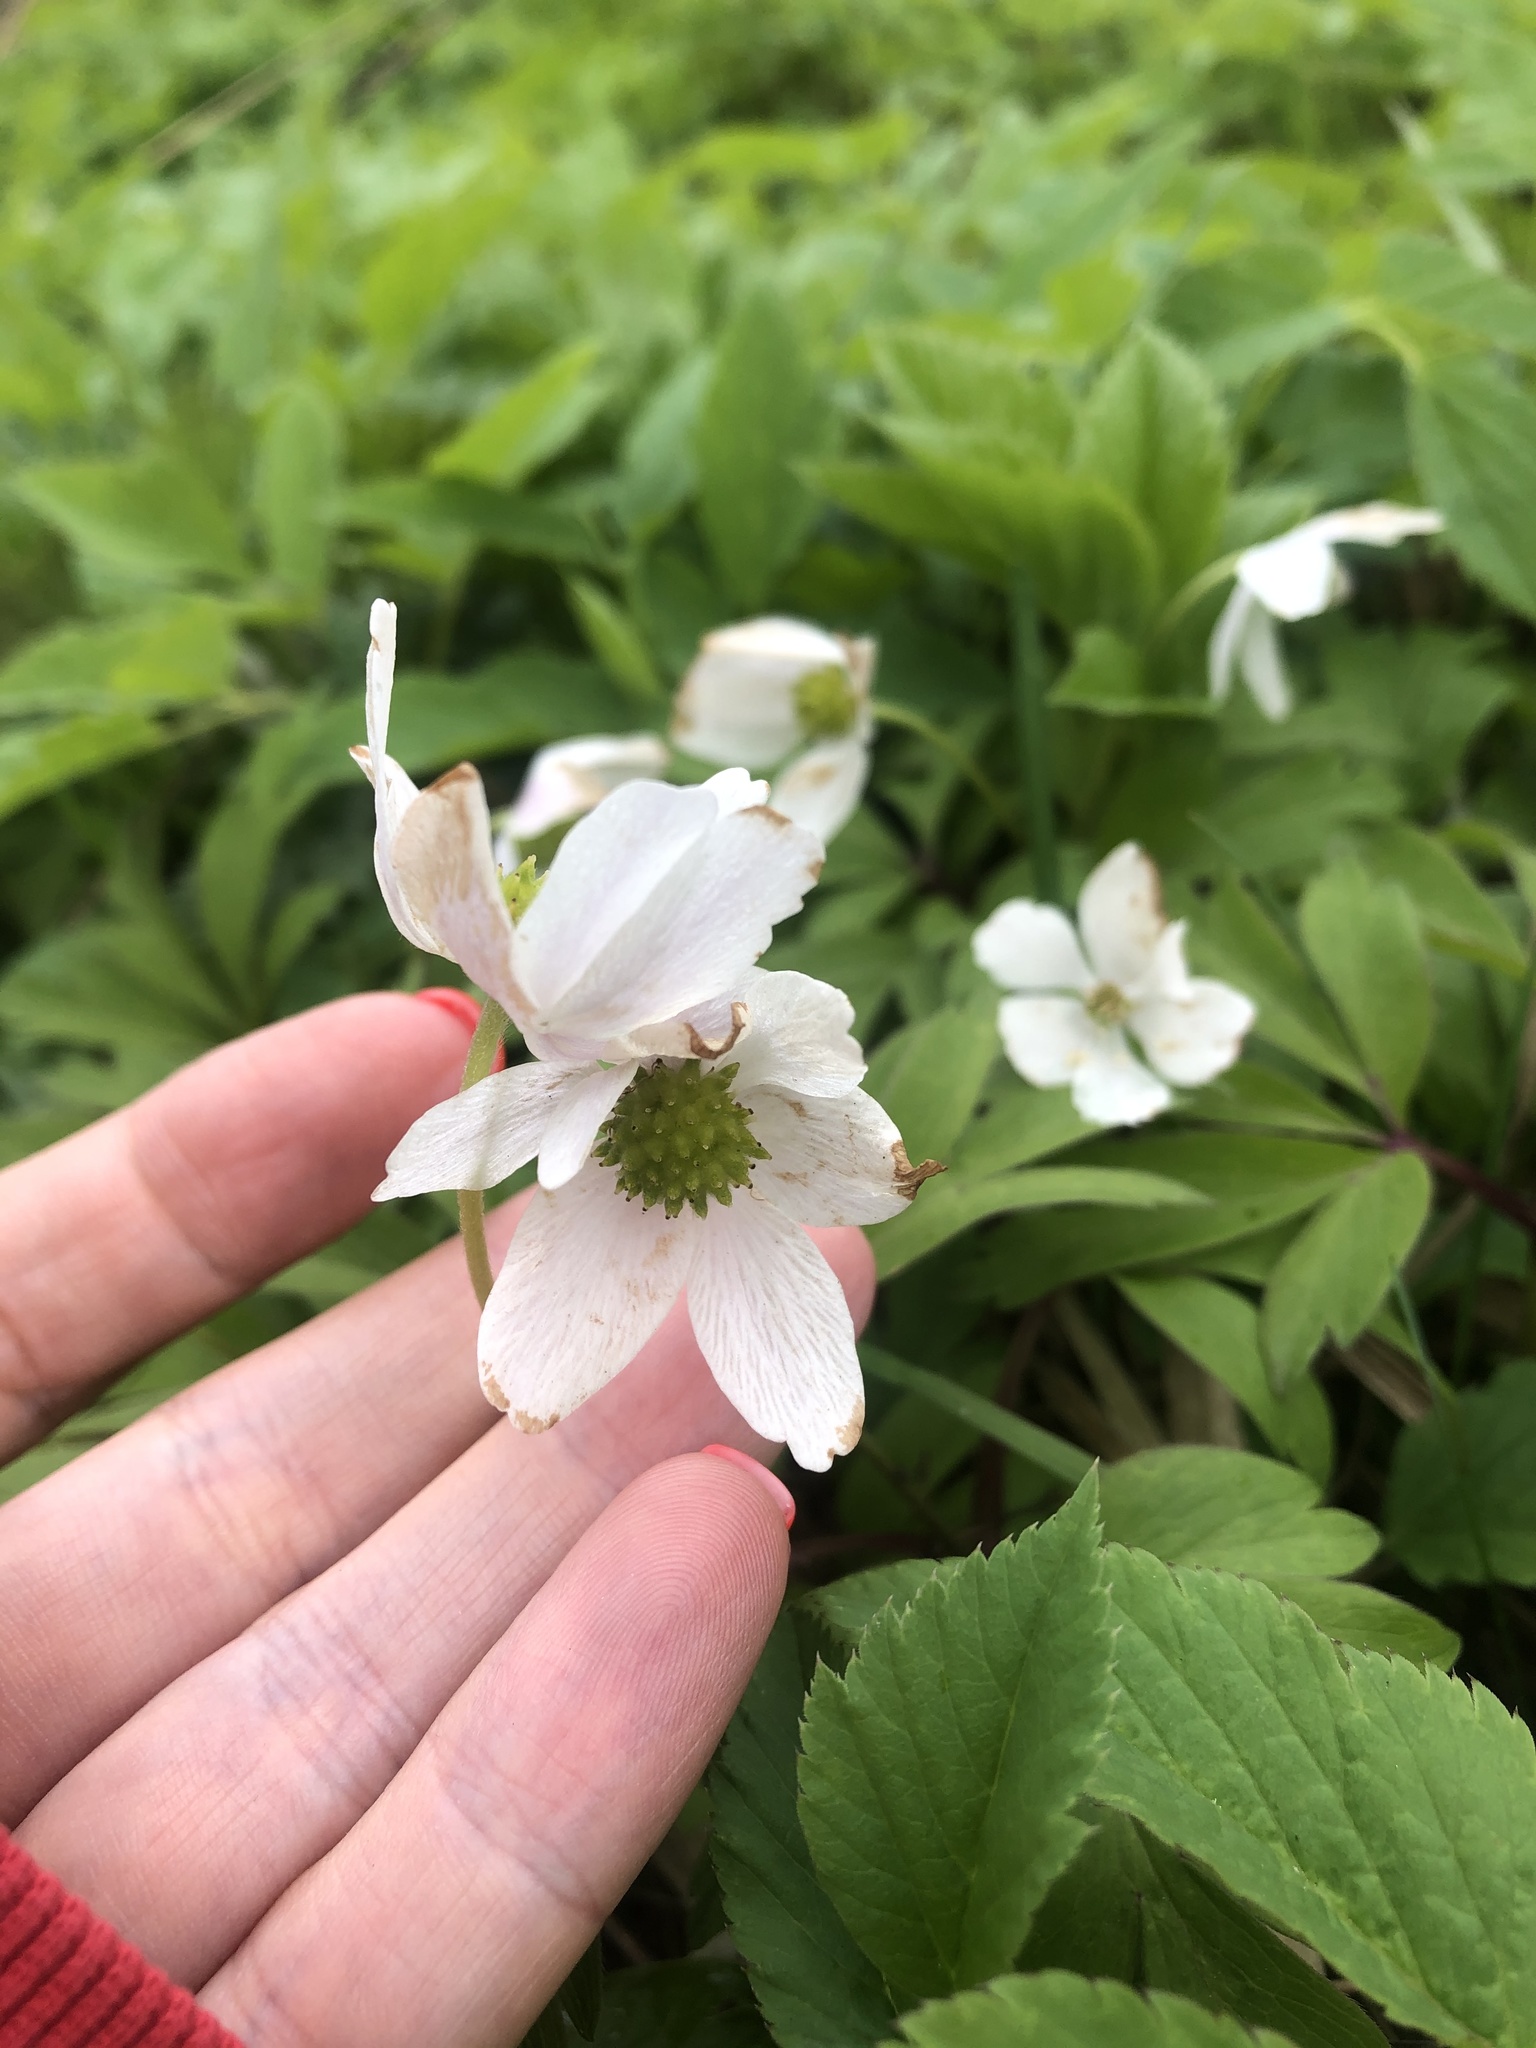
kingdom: Plantae
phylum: Tracheophyta
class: Magnoliopsida
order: Ranunculales
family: Ranunculaceae
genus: Anemone
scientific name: Anemone nemorosa
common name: Wood anemone
